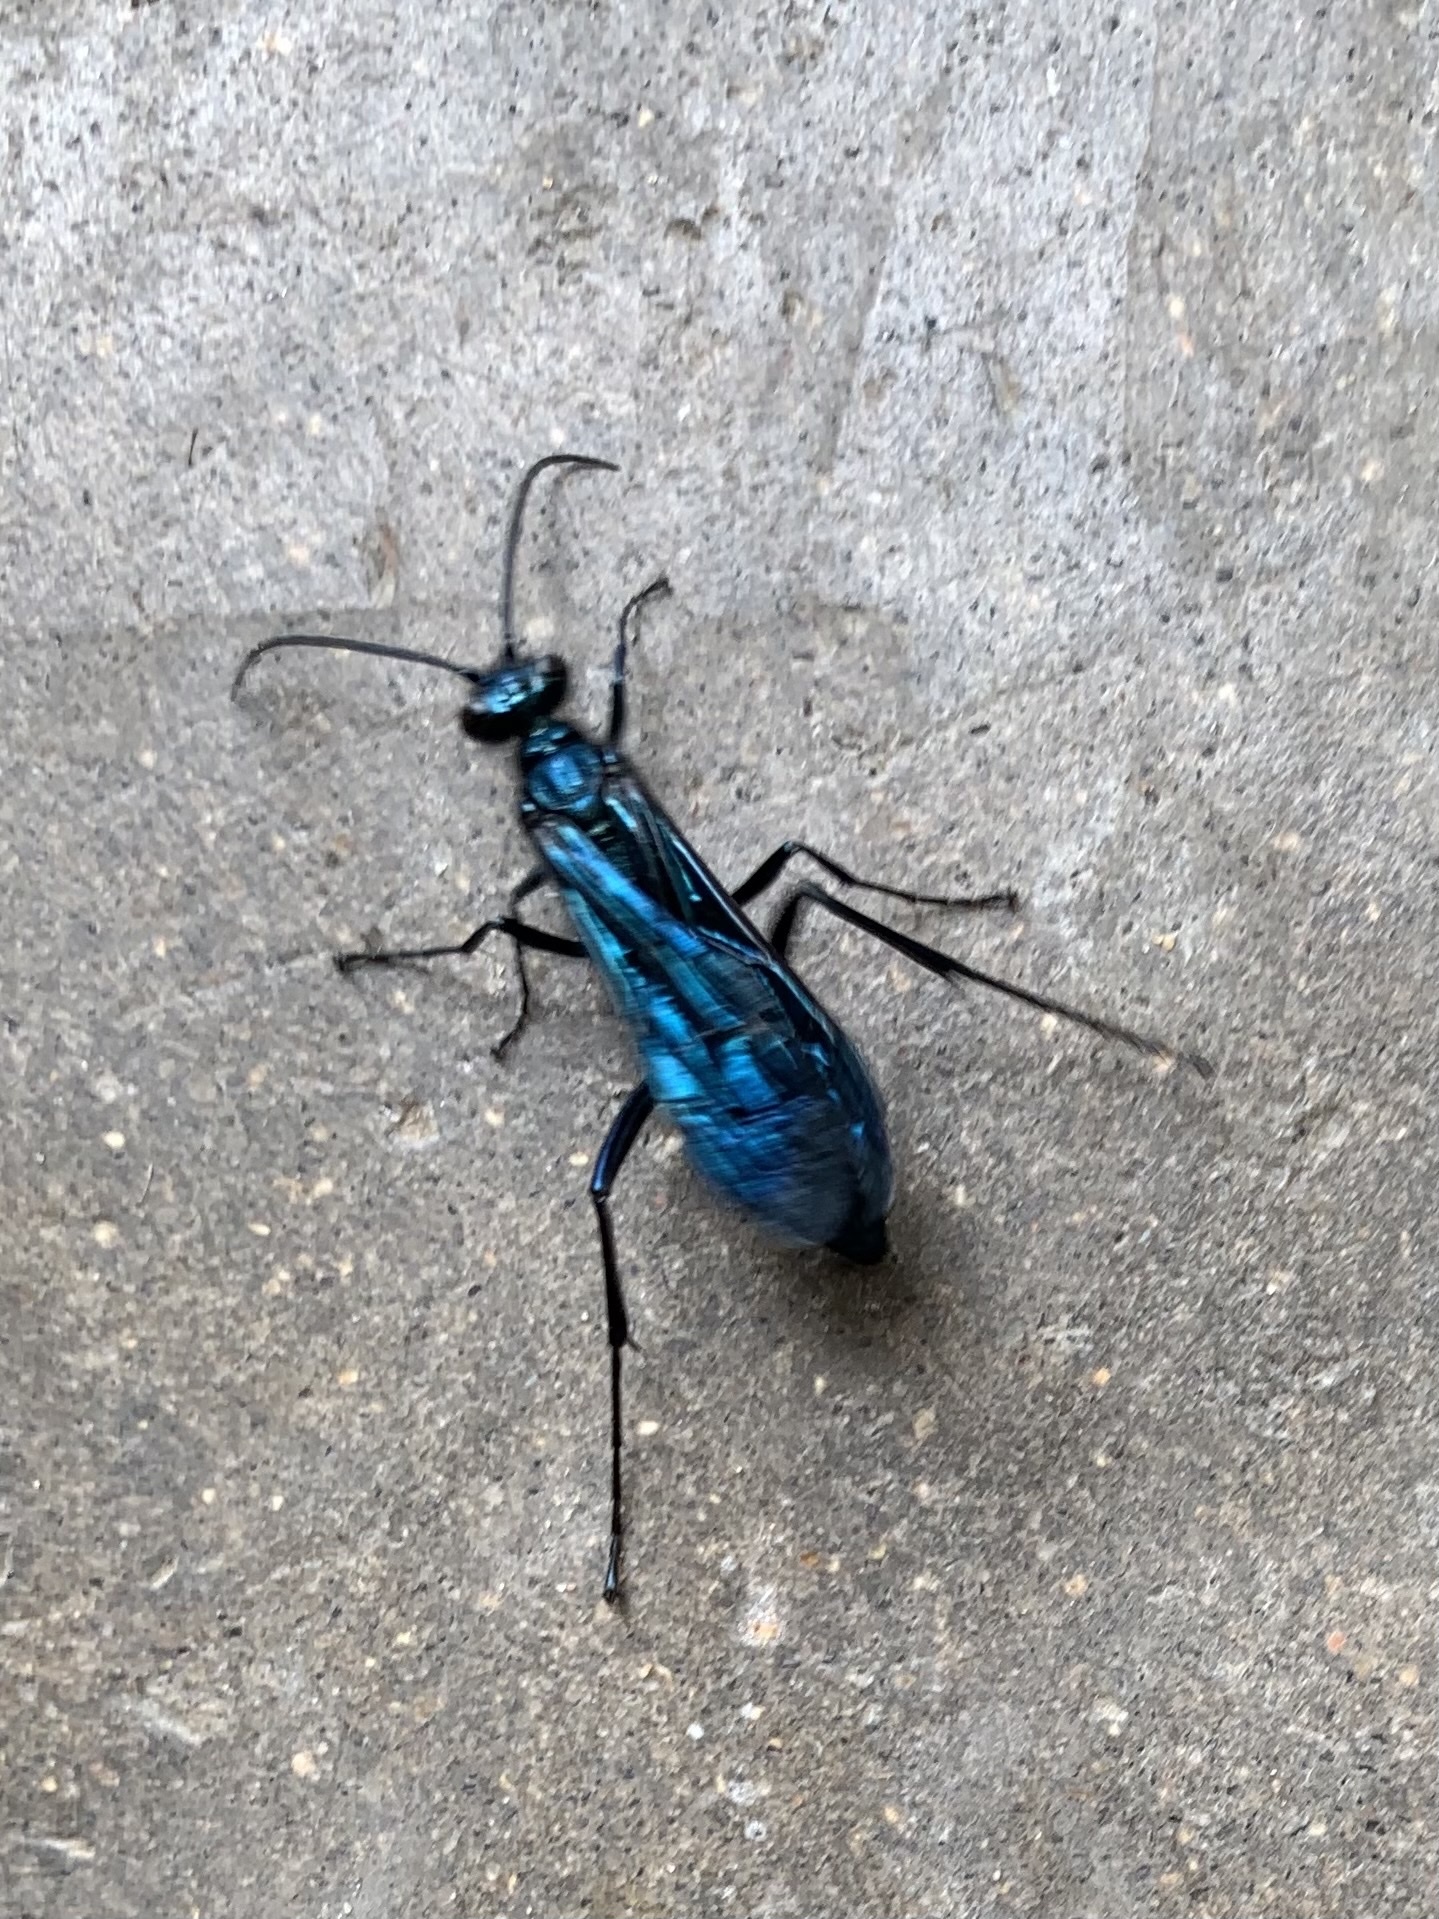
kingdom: Animalia
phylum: Arthropoda
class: Insecta
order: Hymenoptera
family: Sphecidae
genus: Chalybion
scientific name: Chalybion californicum
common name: Mud dauber
